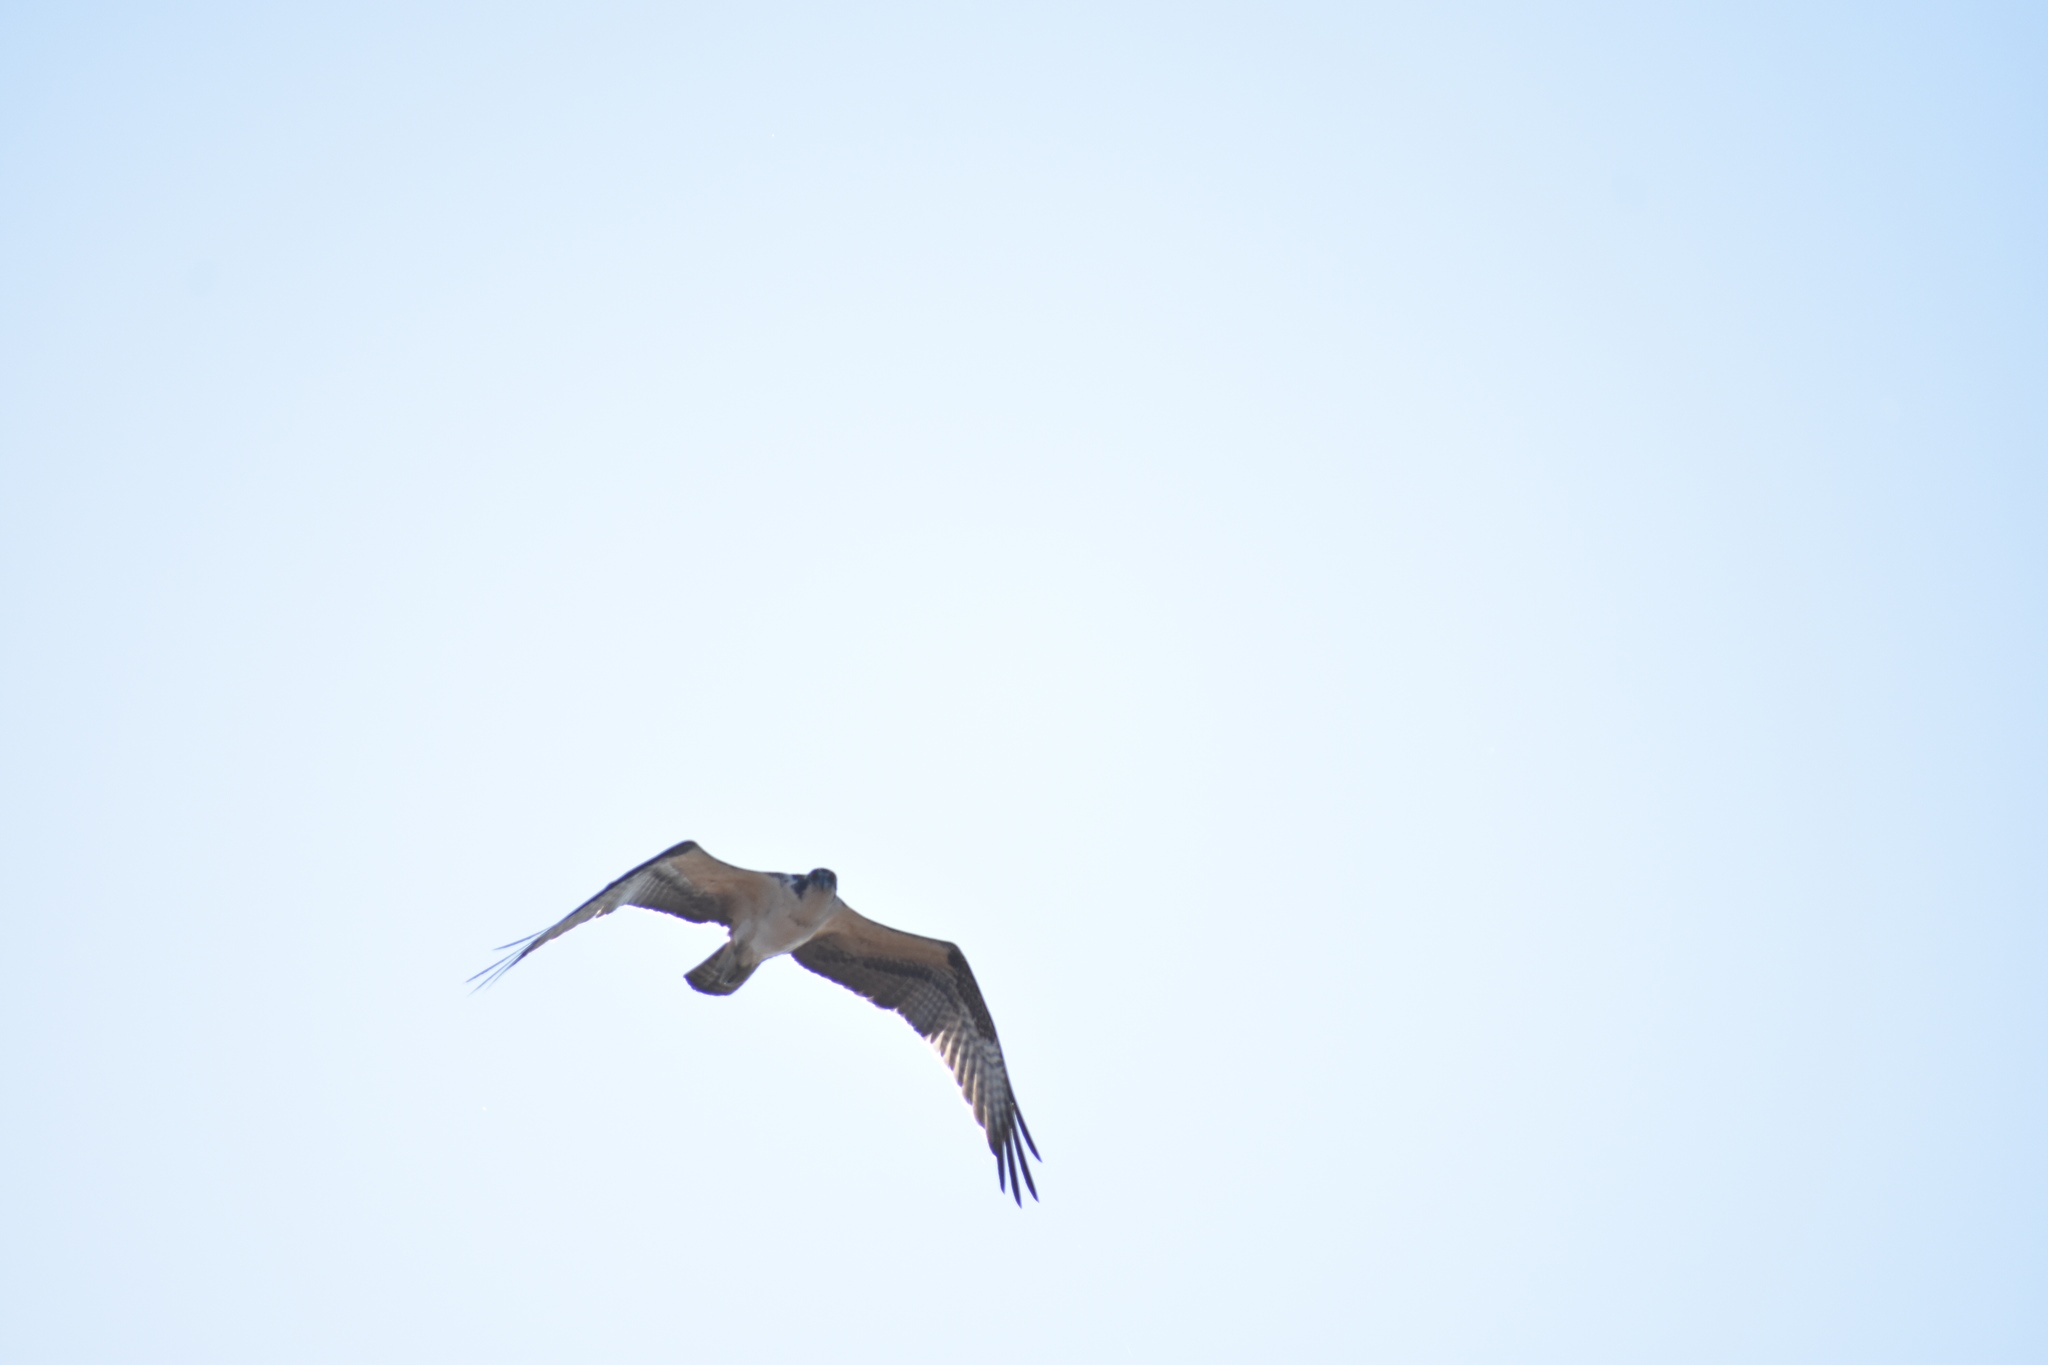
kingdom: Animalia
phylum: Chordata
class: Aves
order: Accipitriformes
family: Pandionidae
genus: Pandion
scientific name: Pandion haliaetus
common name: Osprey
